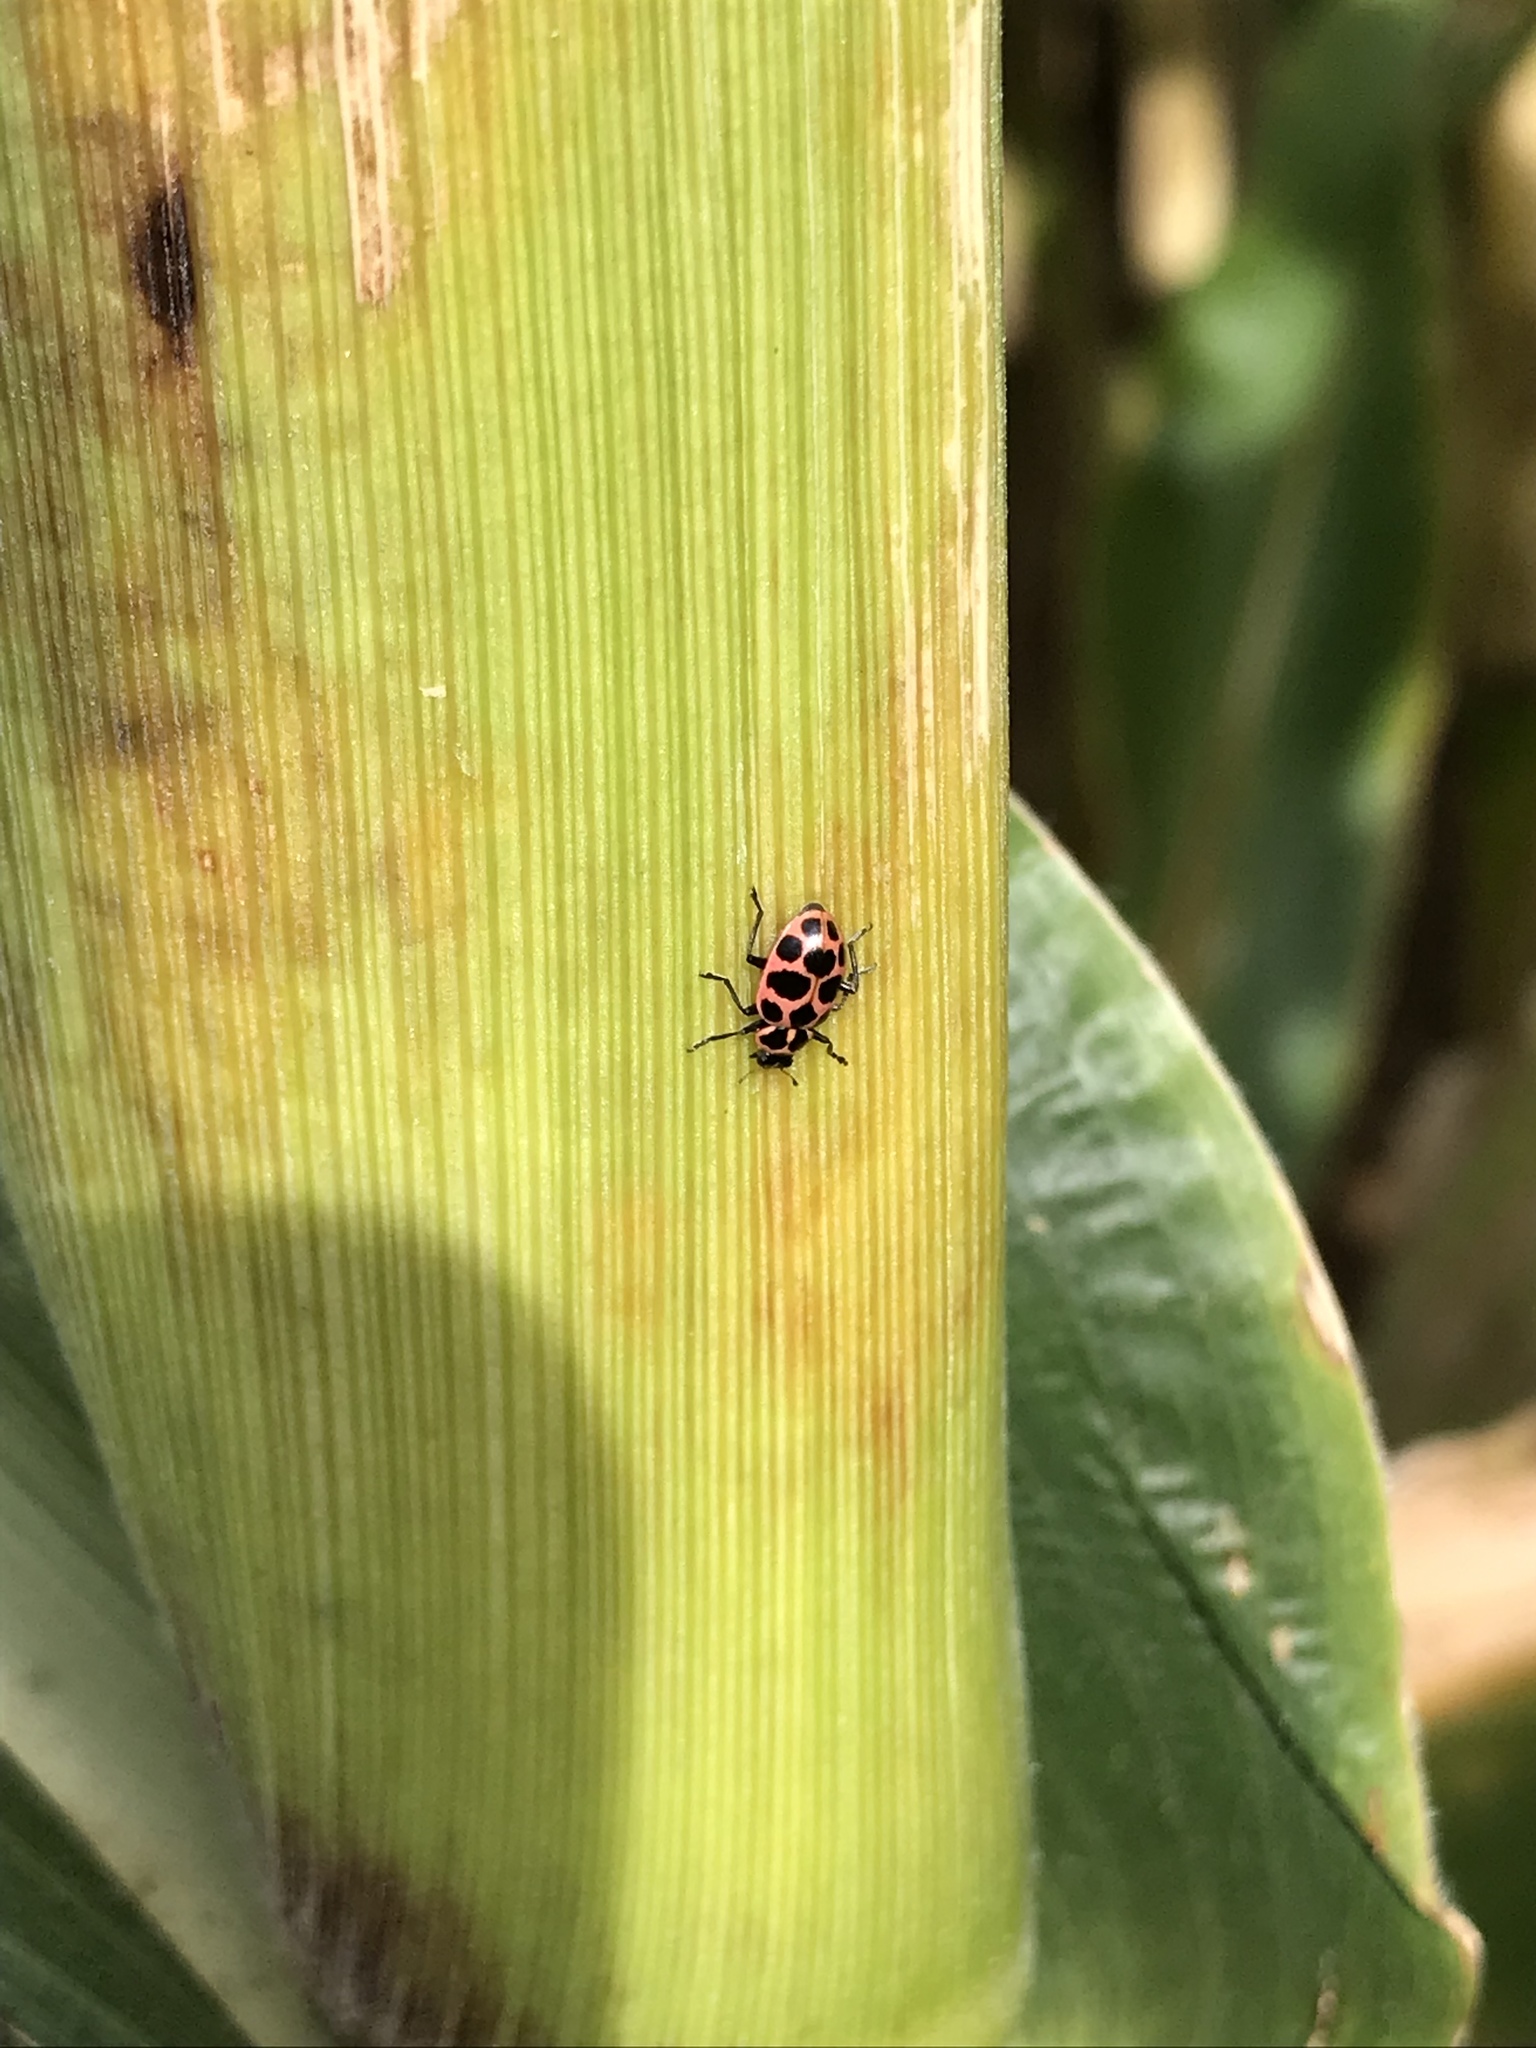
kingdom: Animalia
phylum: Arthropoda
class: Insecta
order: Coleoptera
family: Coccinellidae
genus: Coleomegilla
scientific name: Coleomegilla maculata
